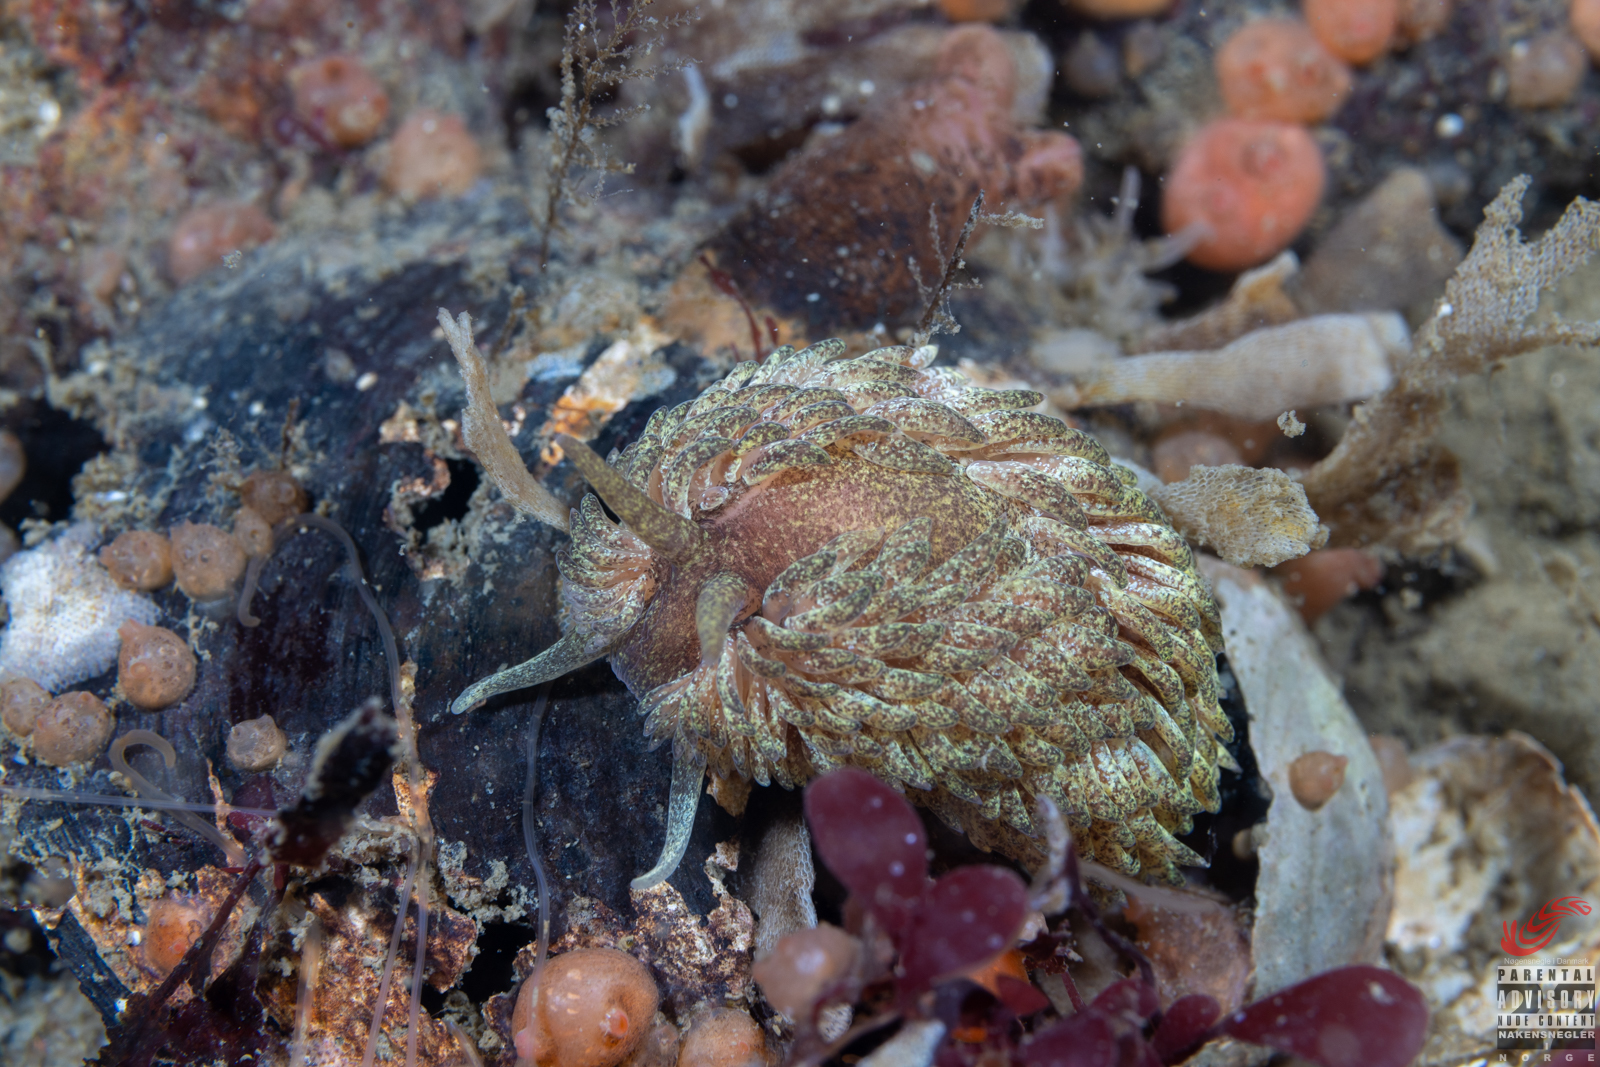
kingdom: Animalia
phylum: Mollusca
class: Gastropoda
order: Nudibranchia
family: Aeolidiidae
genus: Aeolidia
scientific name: Aeolidia papillosa
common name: Common grey sea slug
